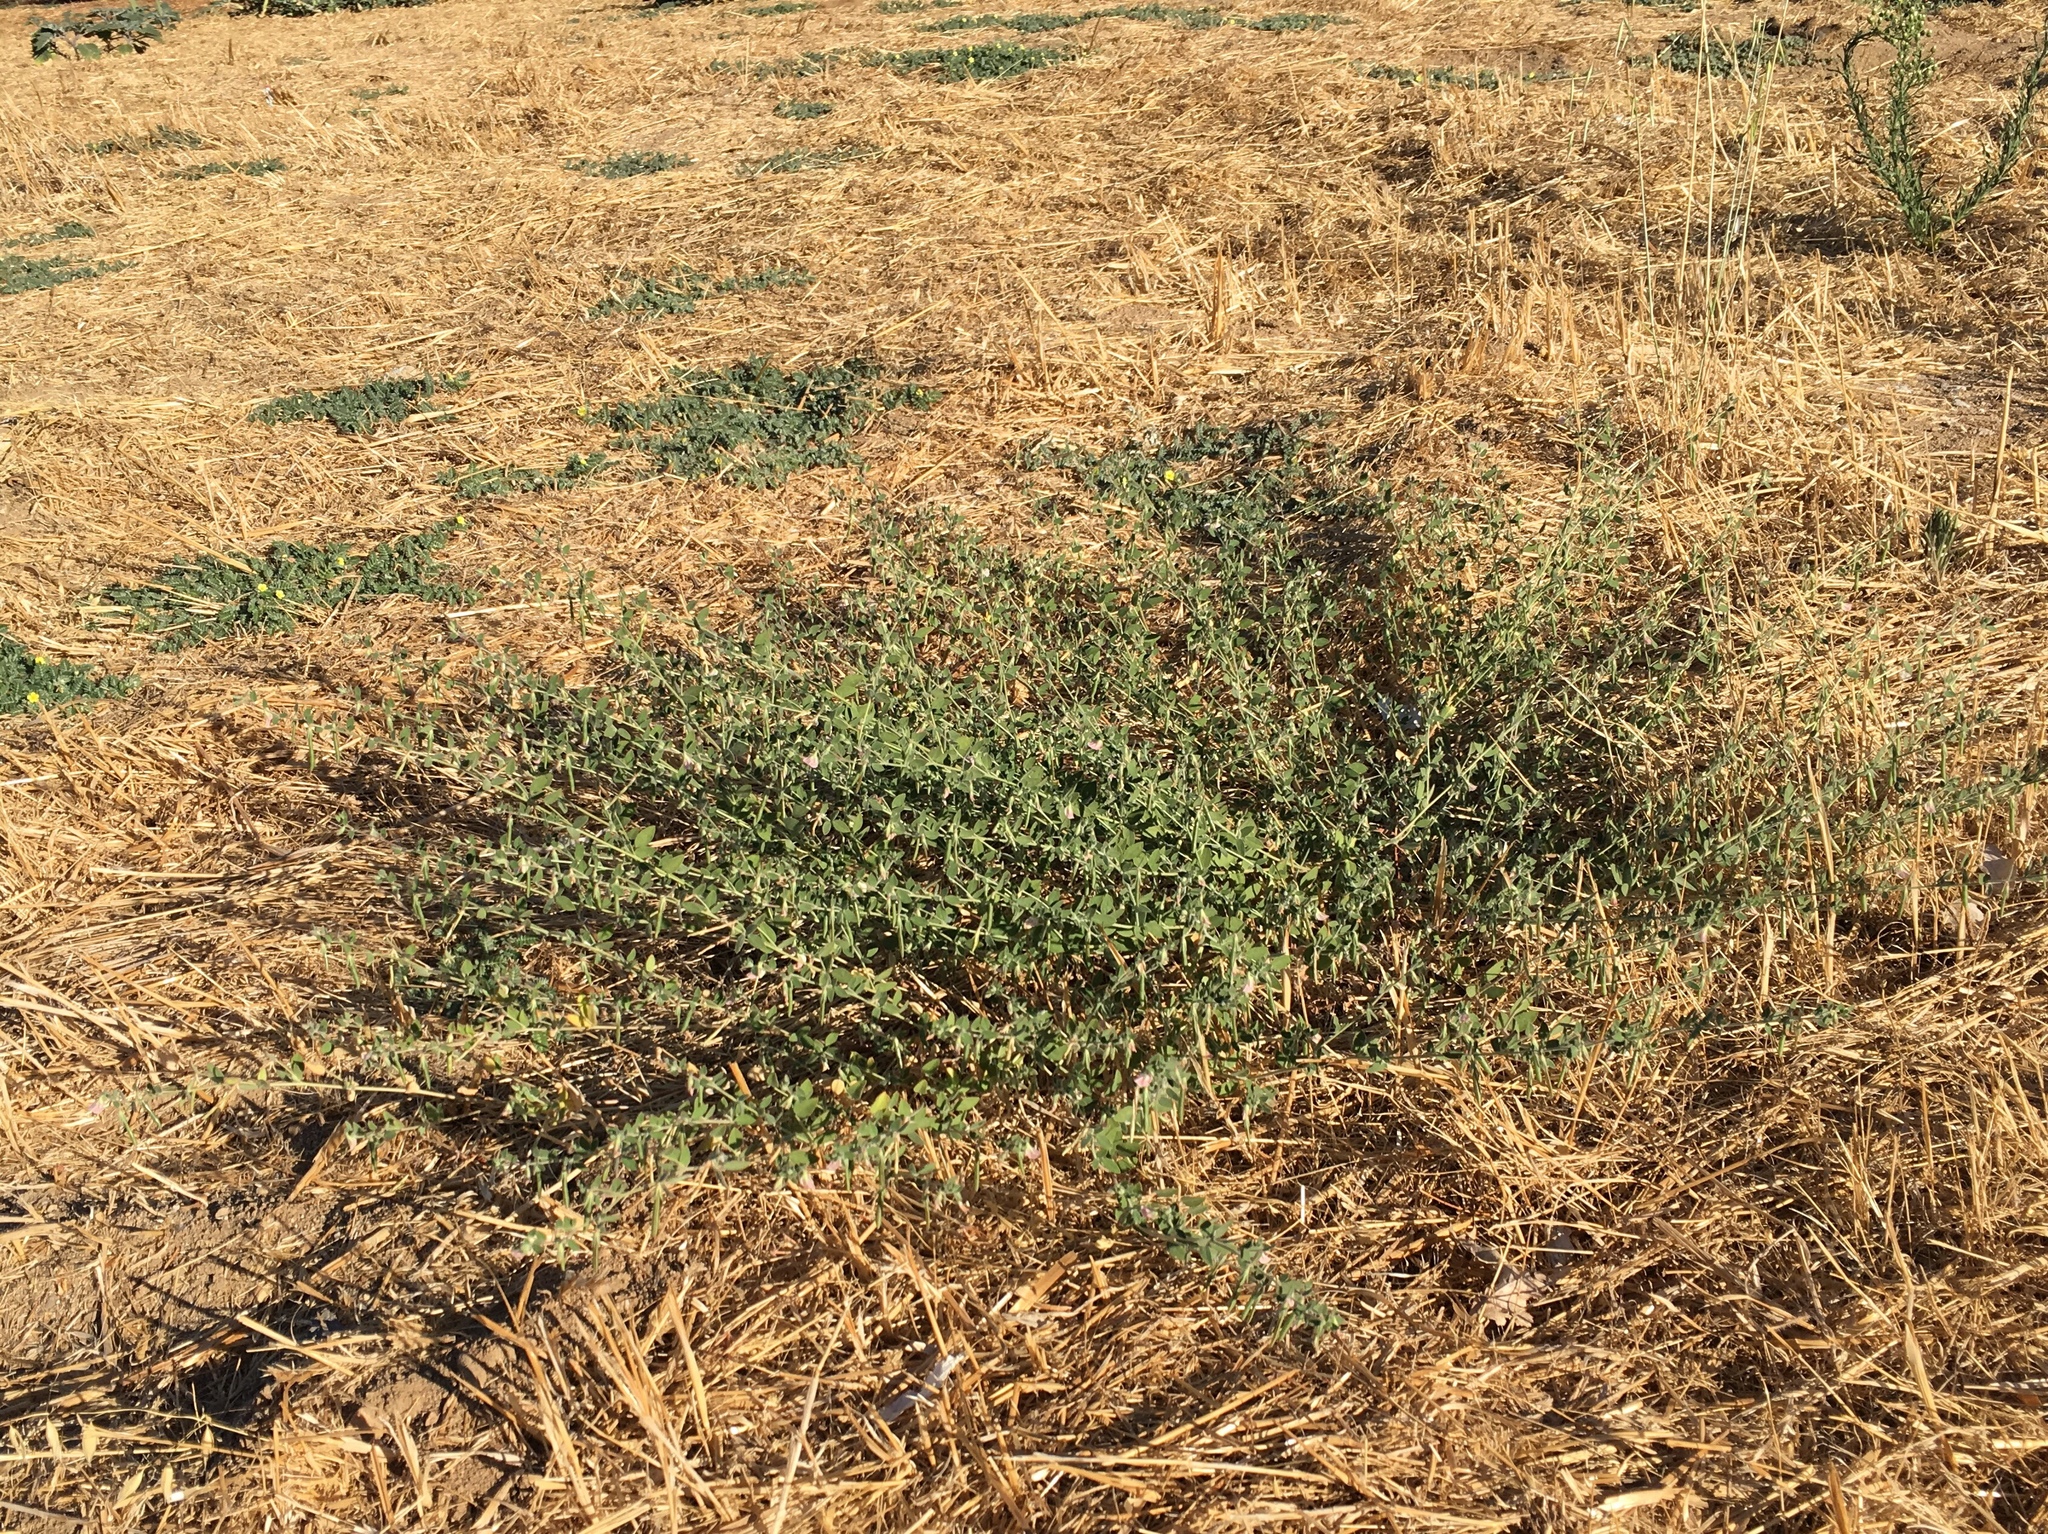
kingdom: Plantae
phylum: Tracheophyta
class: Magnoliopsida
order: Fabales
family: Fabaceae
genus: Acmispon
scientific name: Acmispon americanus
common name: American bird's-foot trefoil
